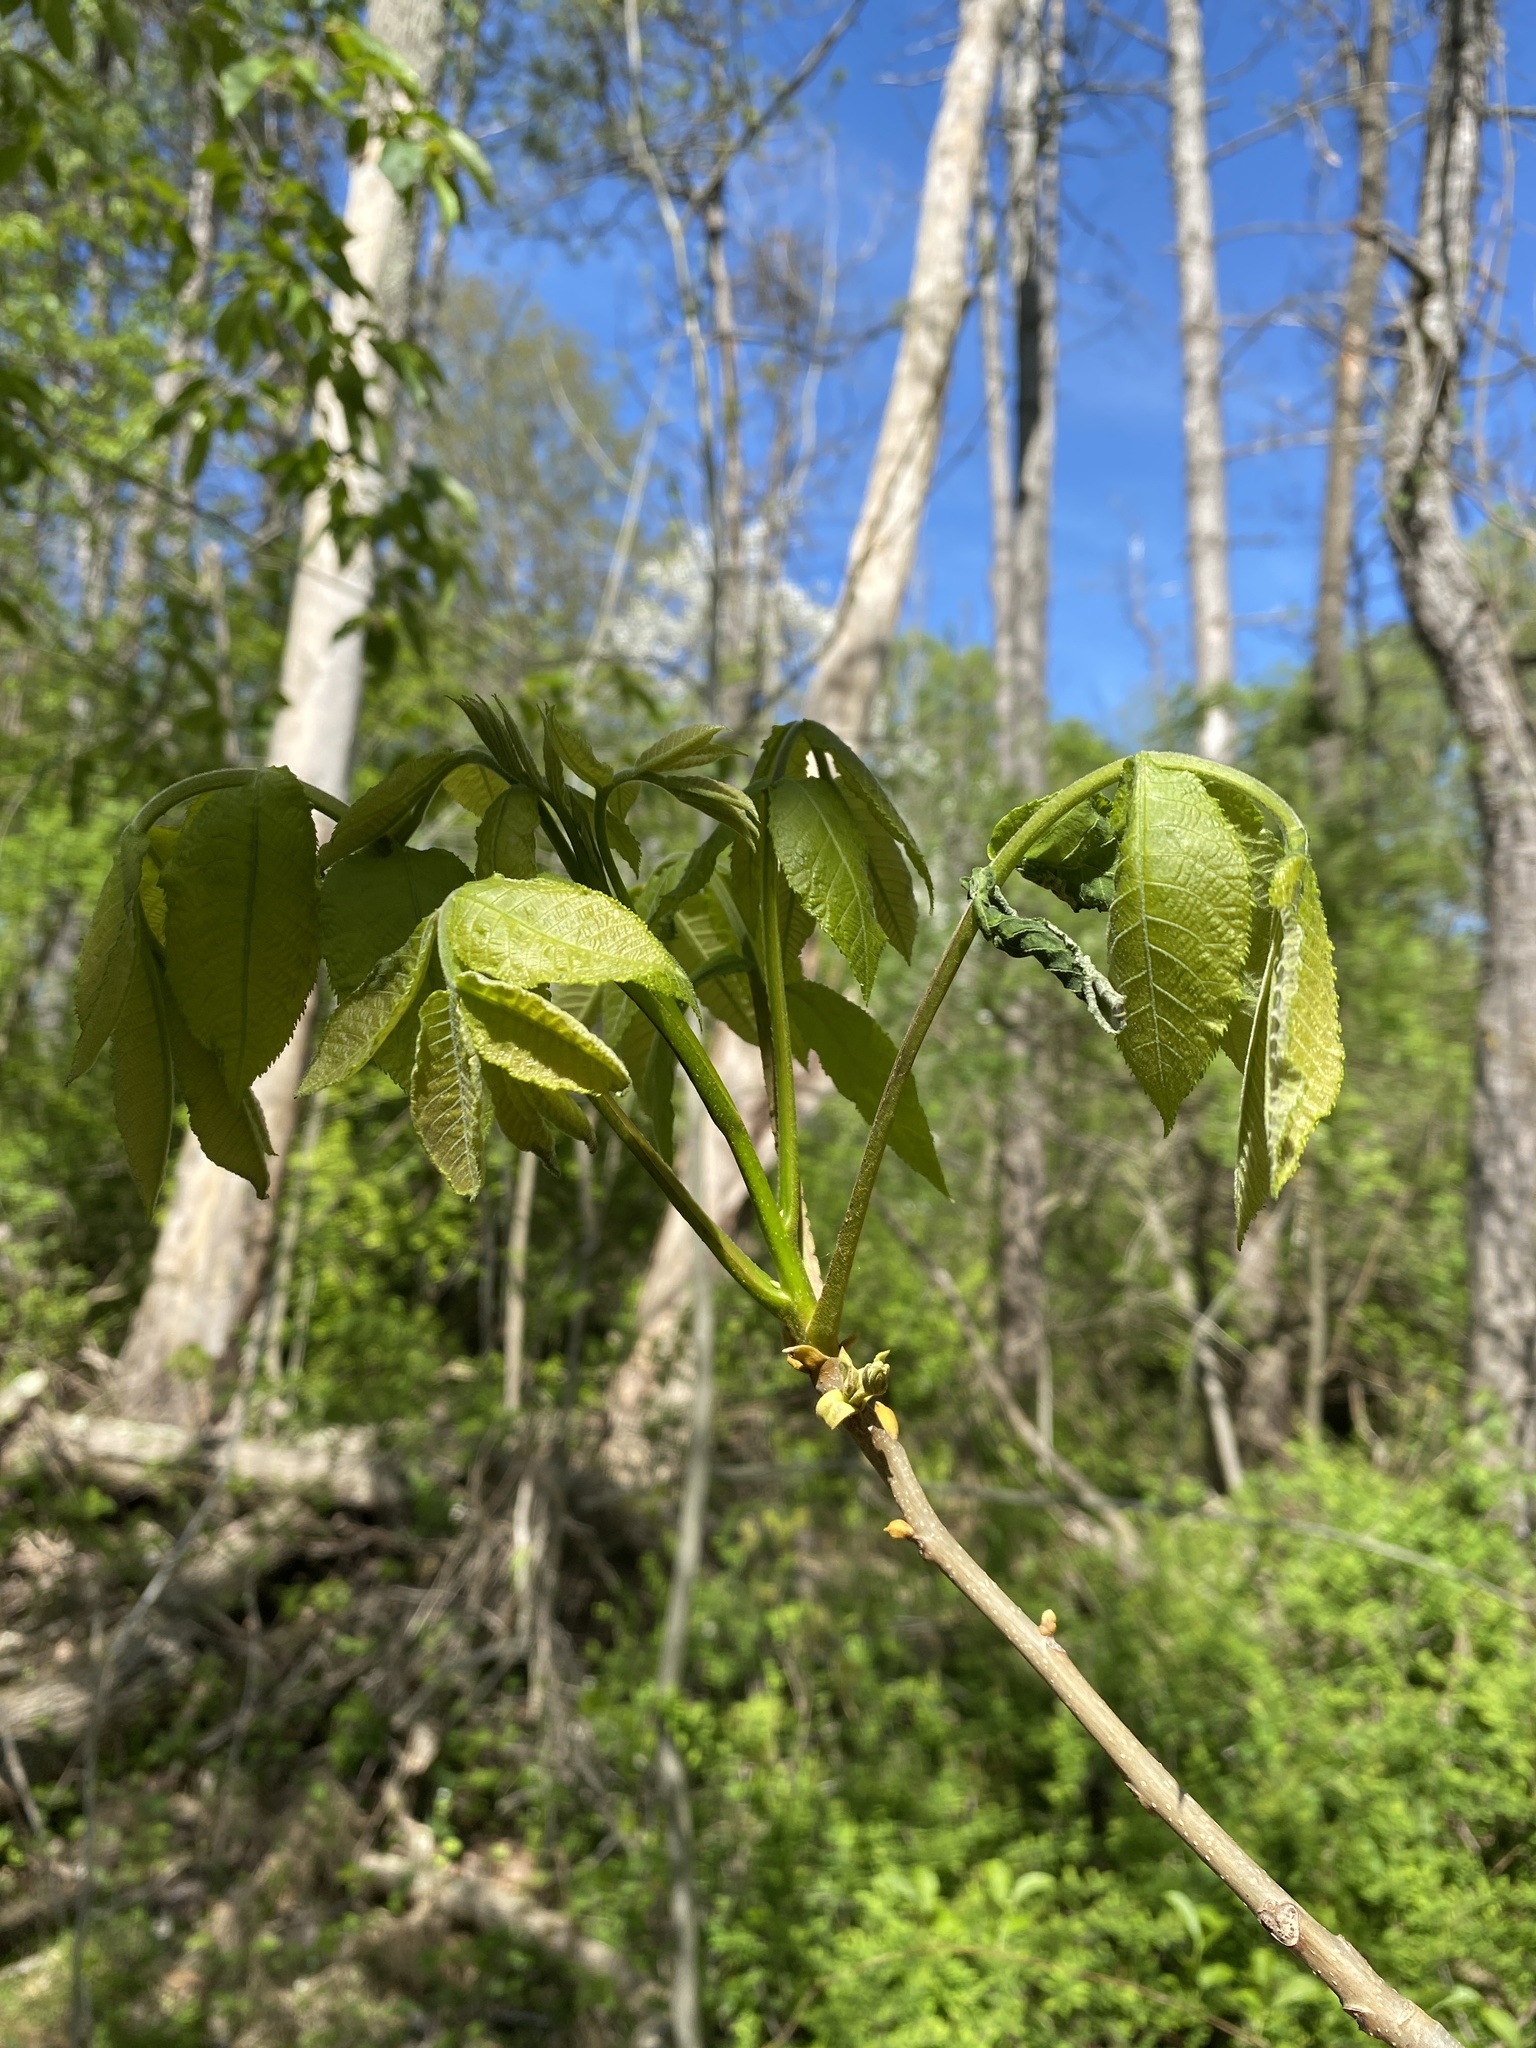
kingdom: Plantae
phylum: Tracheophyta
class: Magnoliopsida
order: Fagales
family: Juglandaceae
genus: Carya
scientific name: Carya cordiformis
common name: Bitternut hickory
